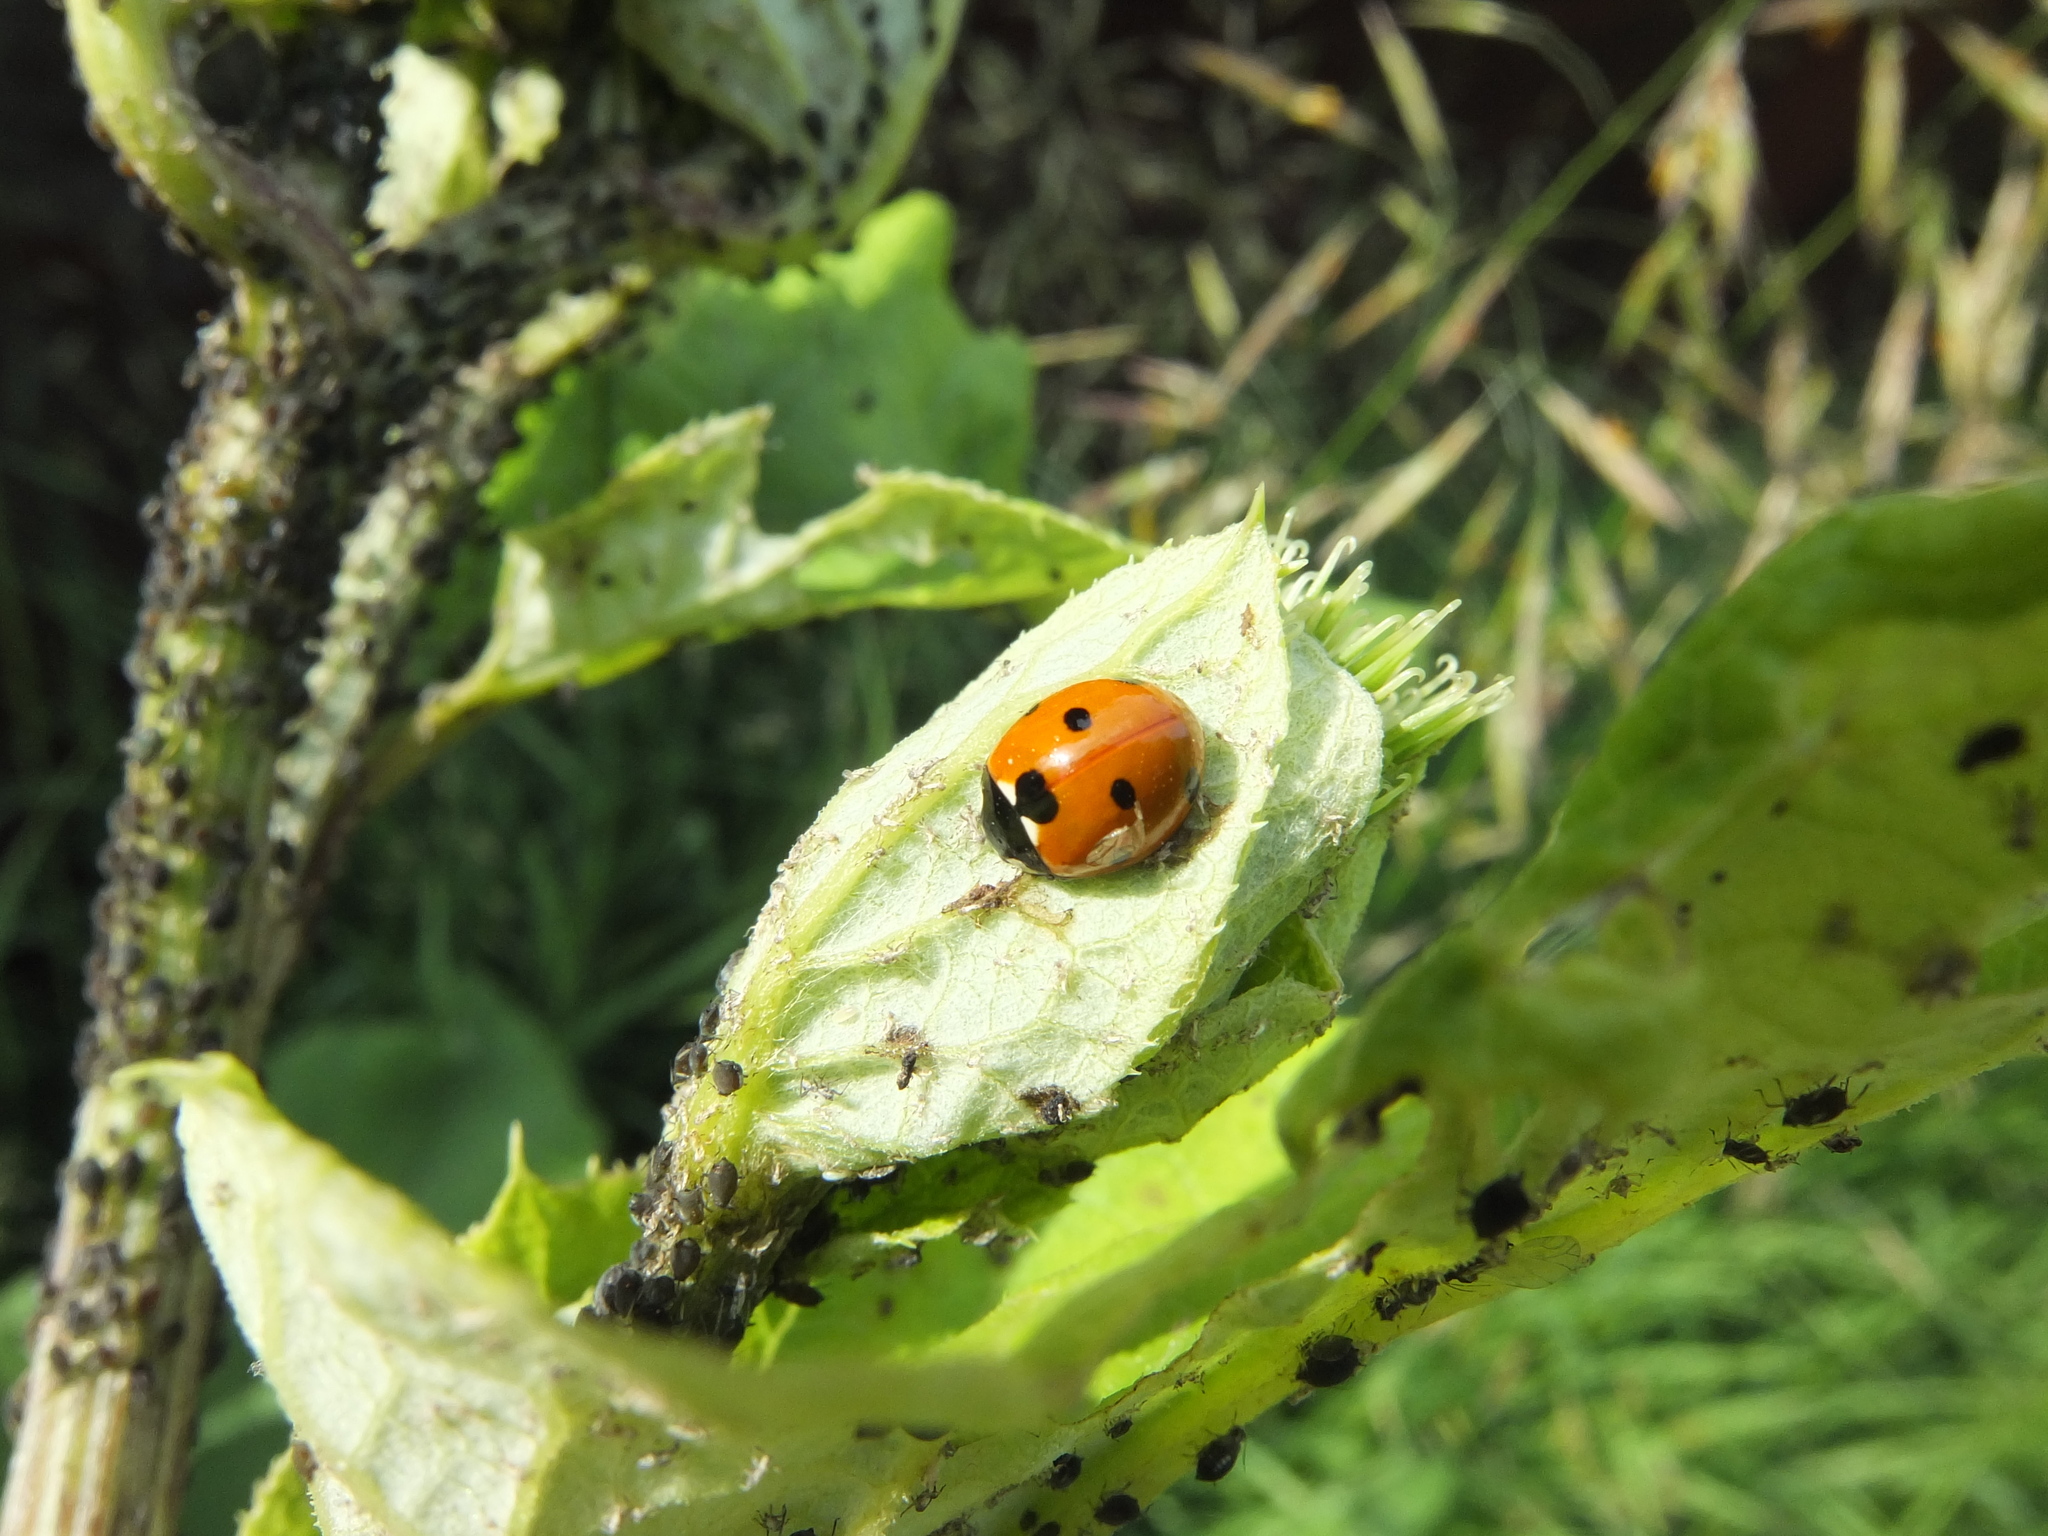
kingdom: Animalia
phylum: Arthropoda
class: Insecta
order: Coleoptera
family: Coccinellidae
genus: Coccinella
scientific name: Coccinella septempunctata
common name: Sevenspotted lady beetle
